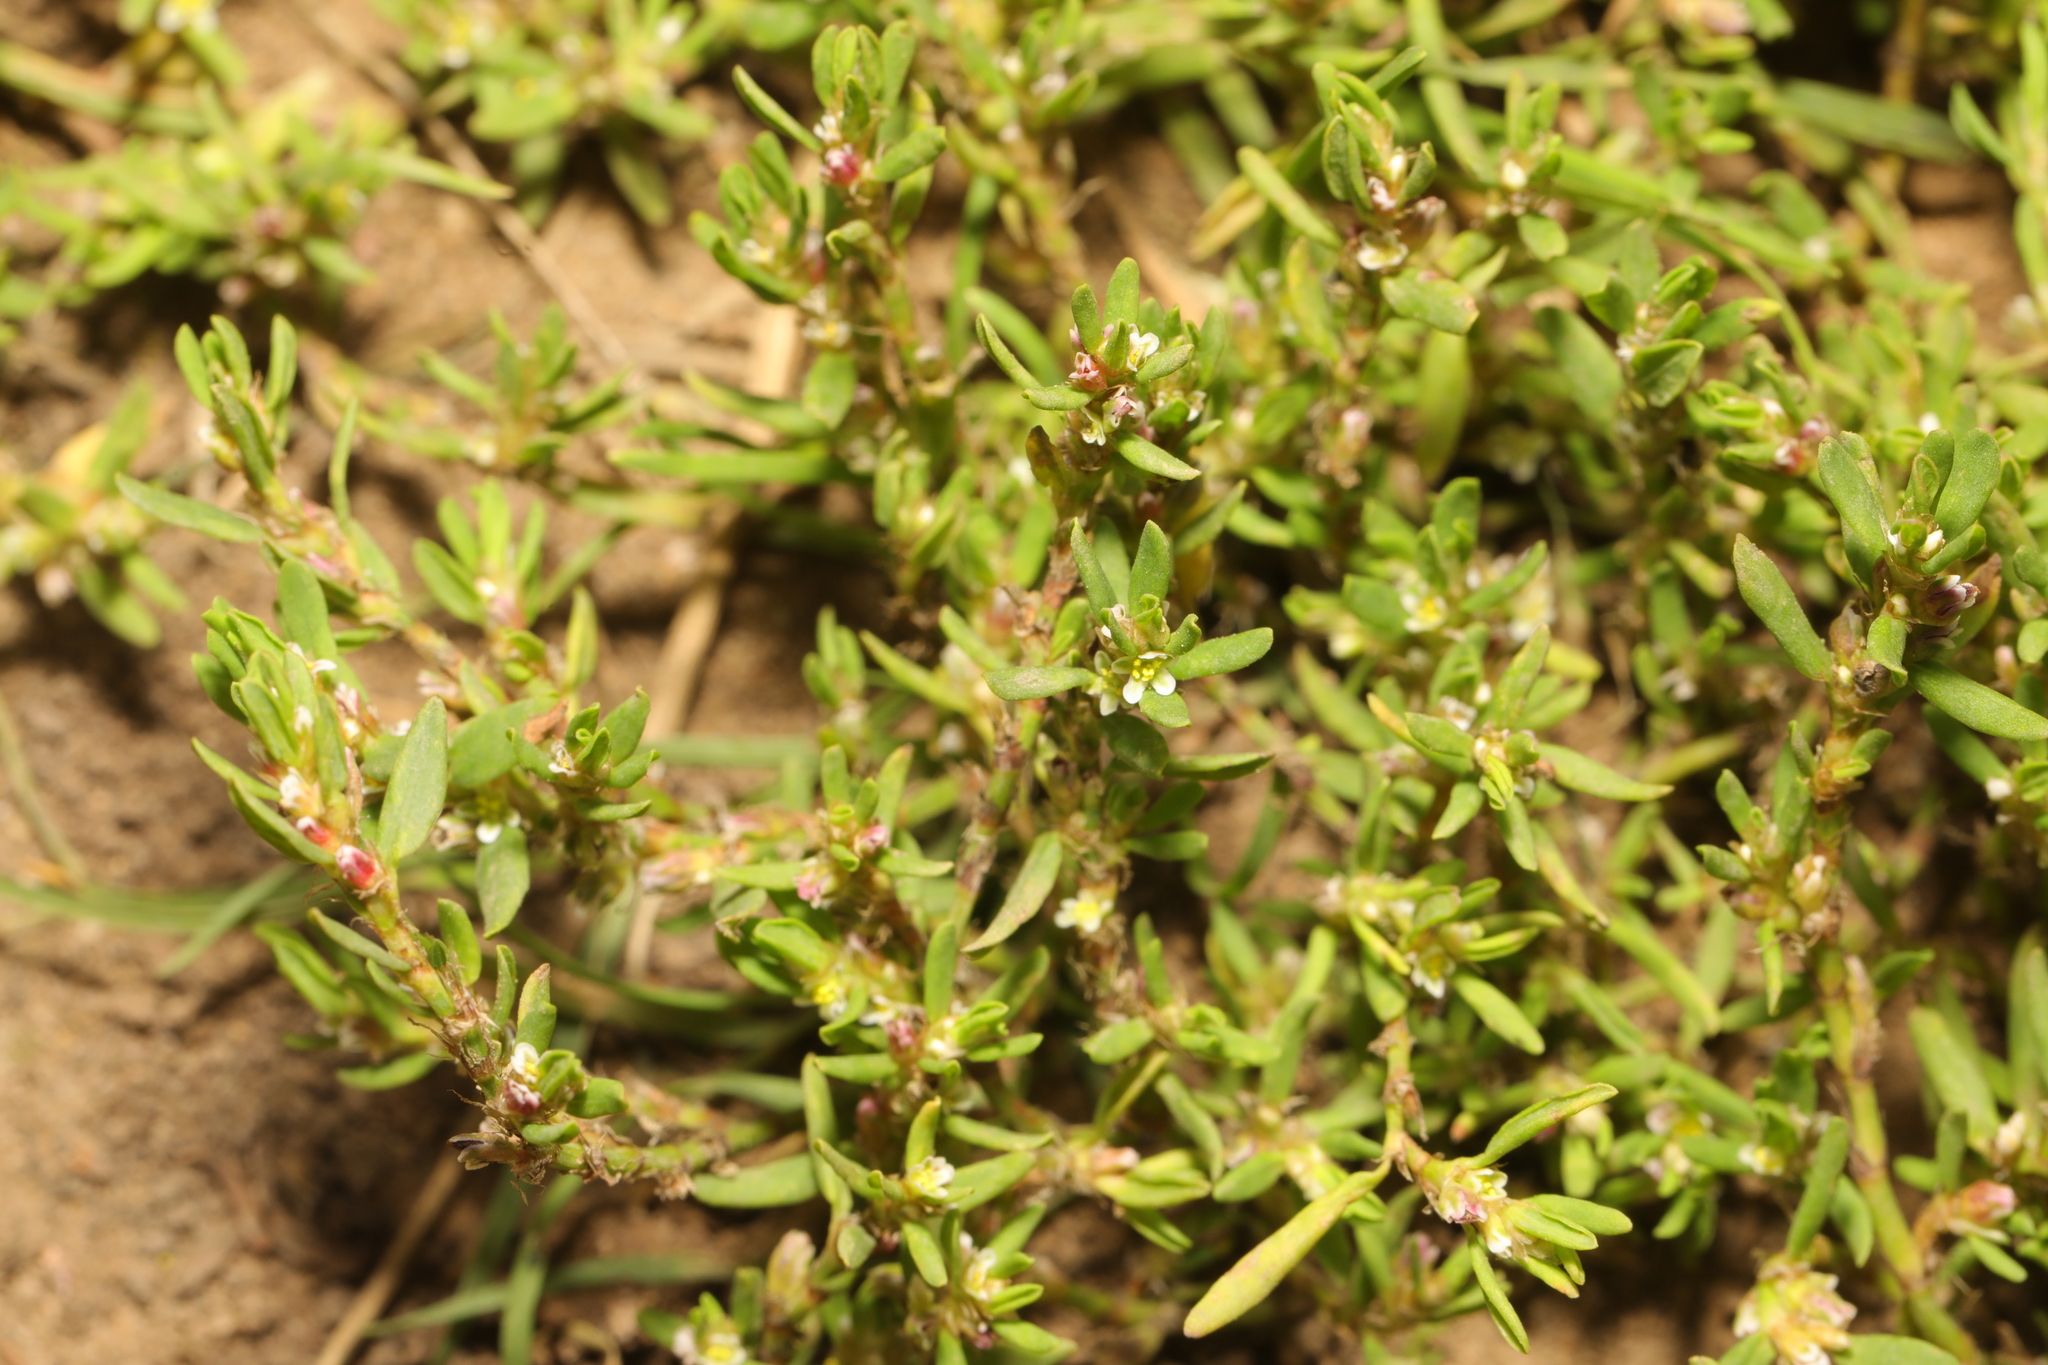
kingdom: Plantae
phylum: Tracheophyta
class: Magnoliopsida
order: Caryophyllales
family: Polygonaceae
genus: Polygonum
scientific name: Polygonum aviculare
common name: Prostrate knotweed
